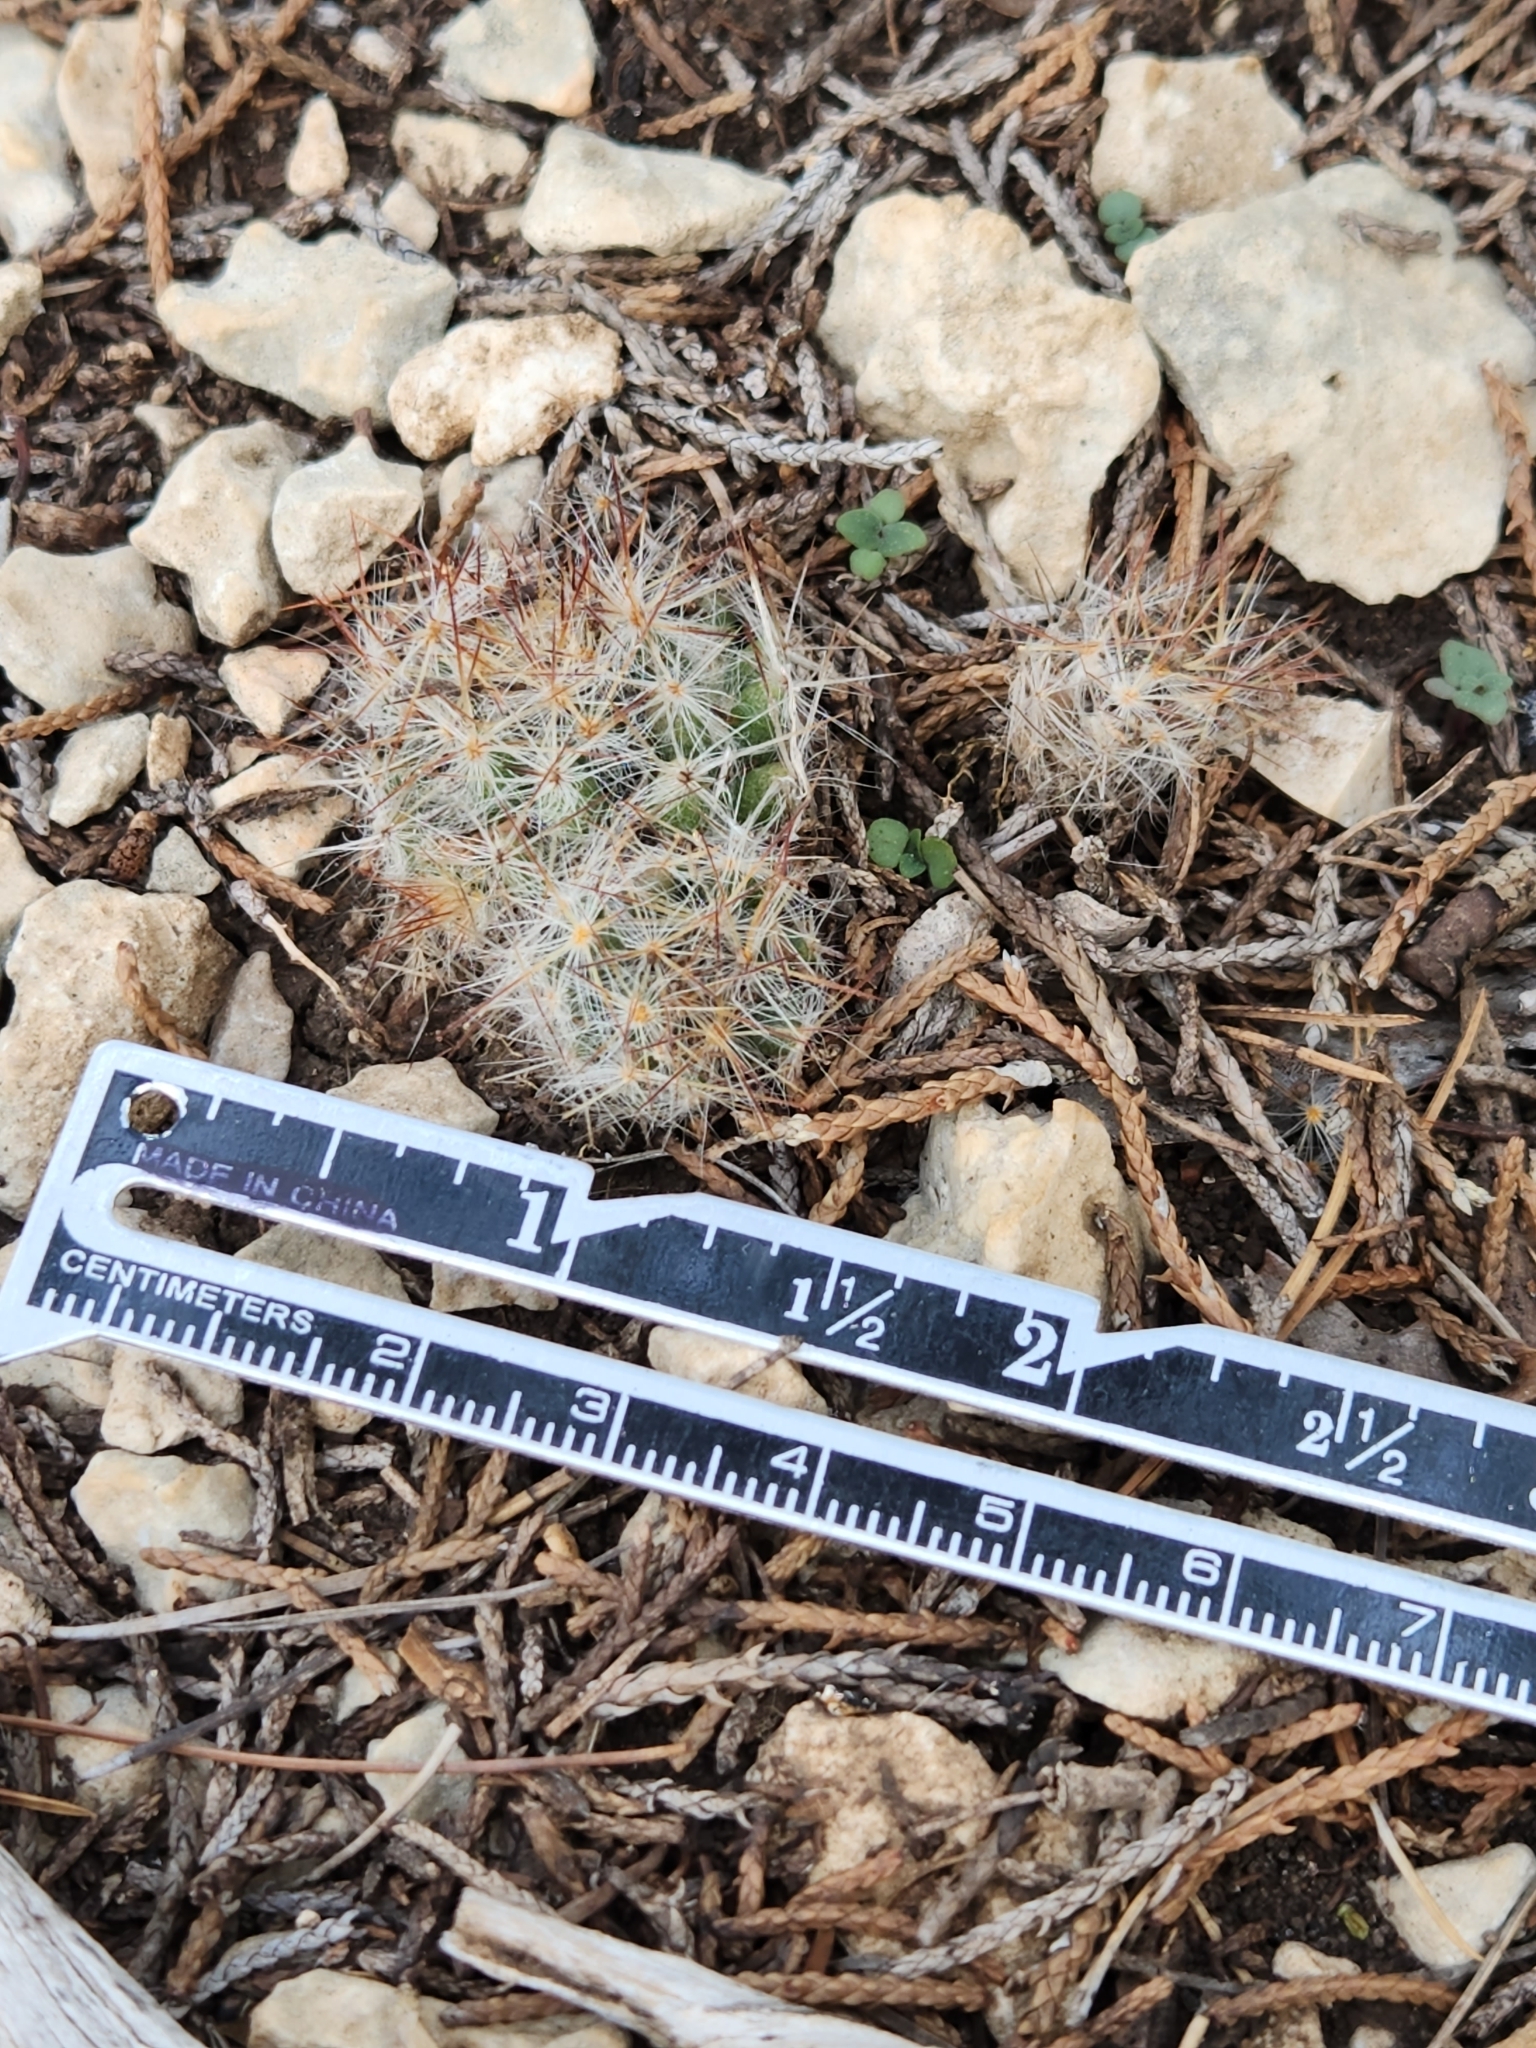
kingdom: Plantae
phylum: Tracheophyta
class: Magnoliopsida
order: Caryophyllales
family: Cactaceae
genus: Mammillaria
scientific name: Mammillaria prolifera
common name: Texas nipple cactus
